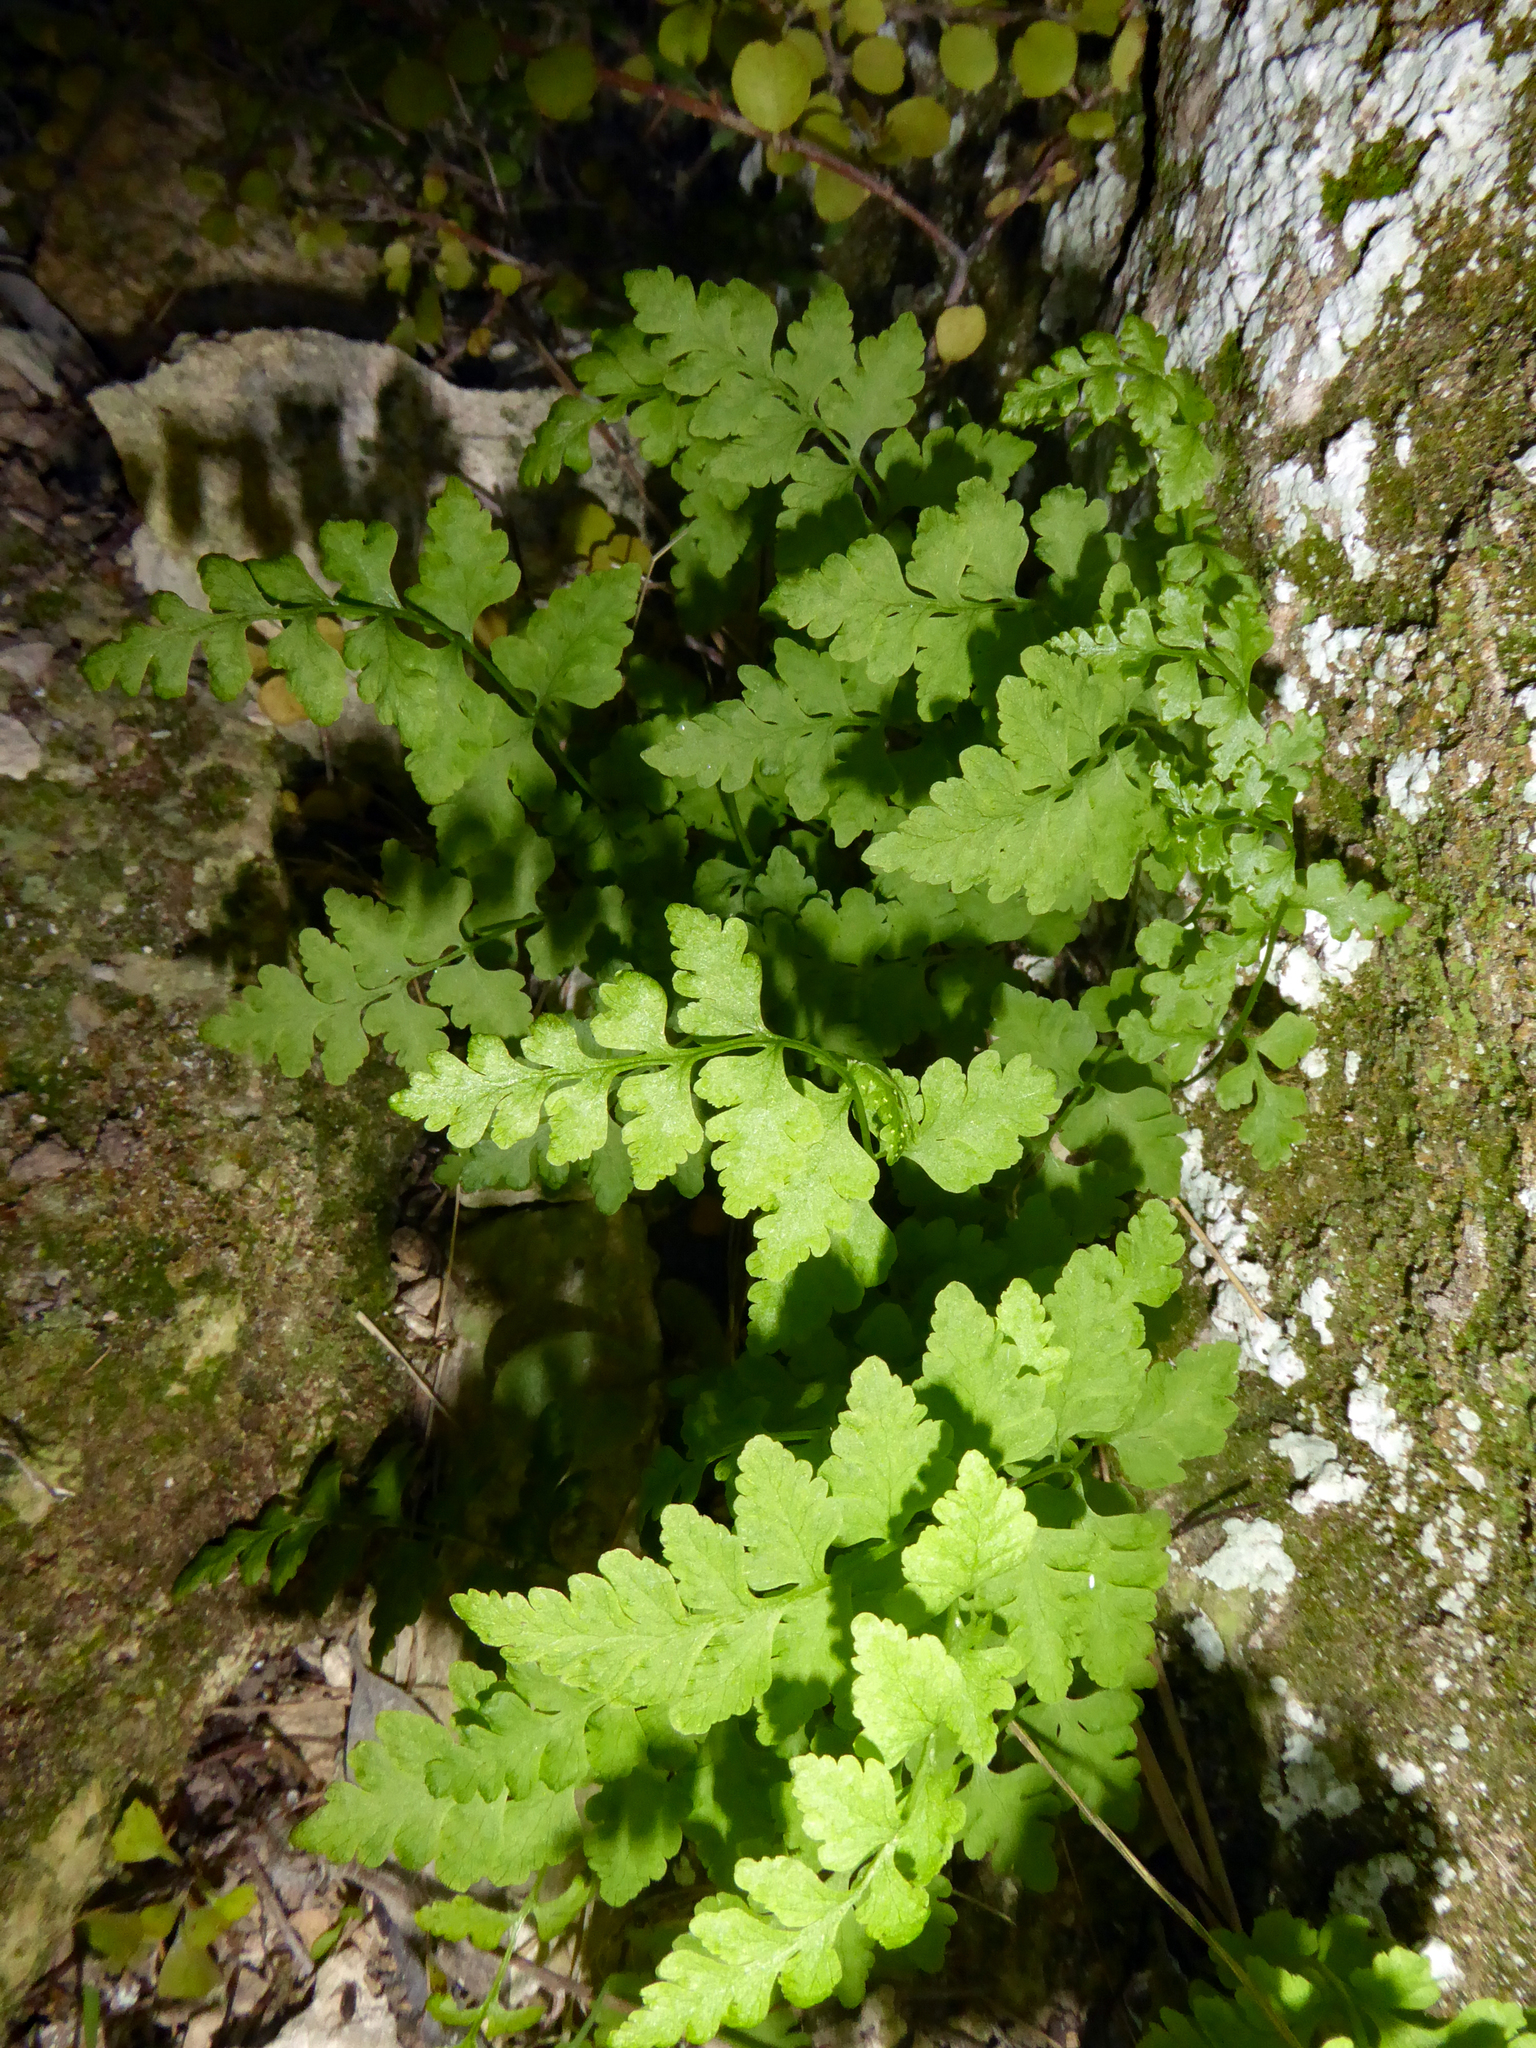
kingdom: Plantae
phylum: Tracheophyta
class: Polypodiopsida
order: Polypodiales
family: Cystopteridaceae
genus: Cystopteris
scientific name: Cystopteris tasmanica
